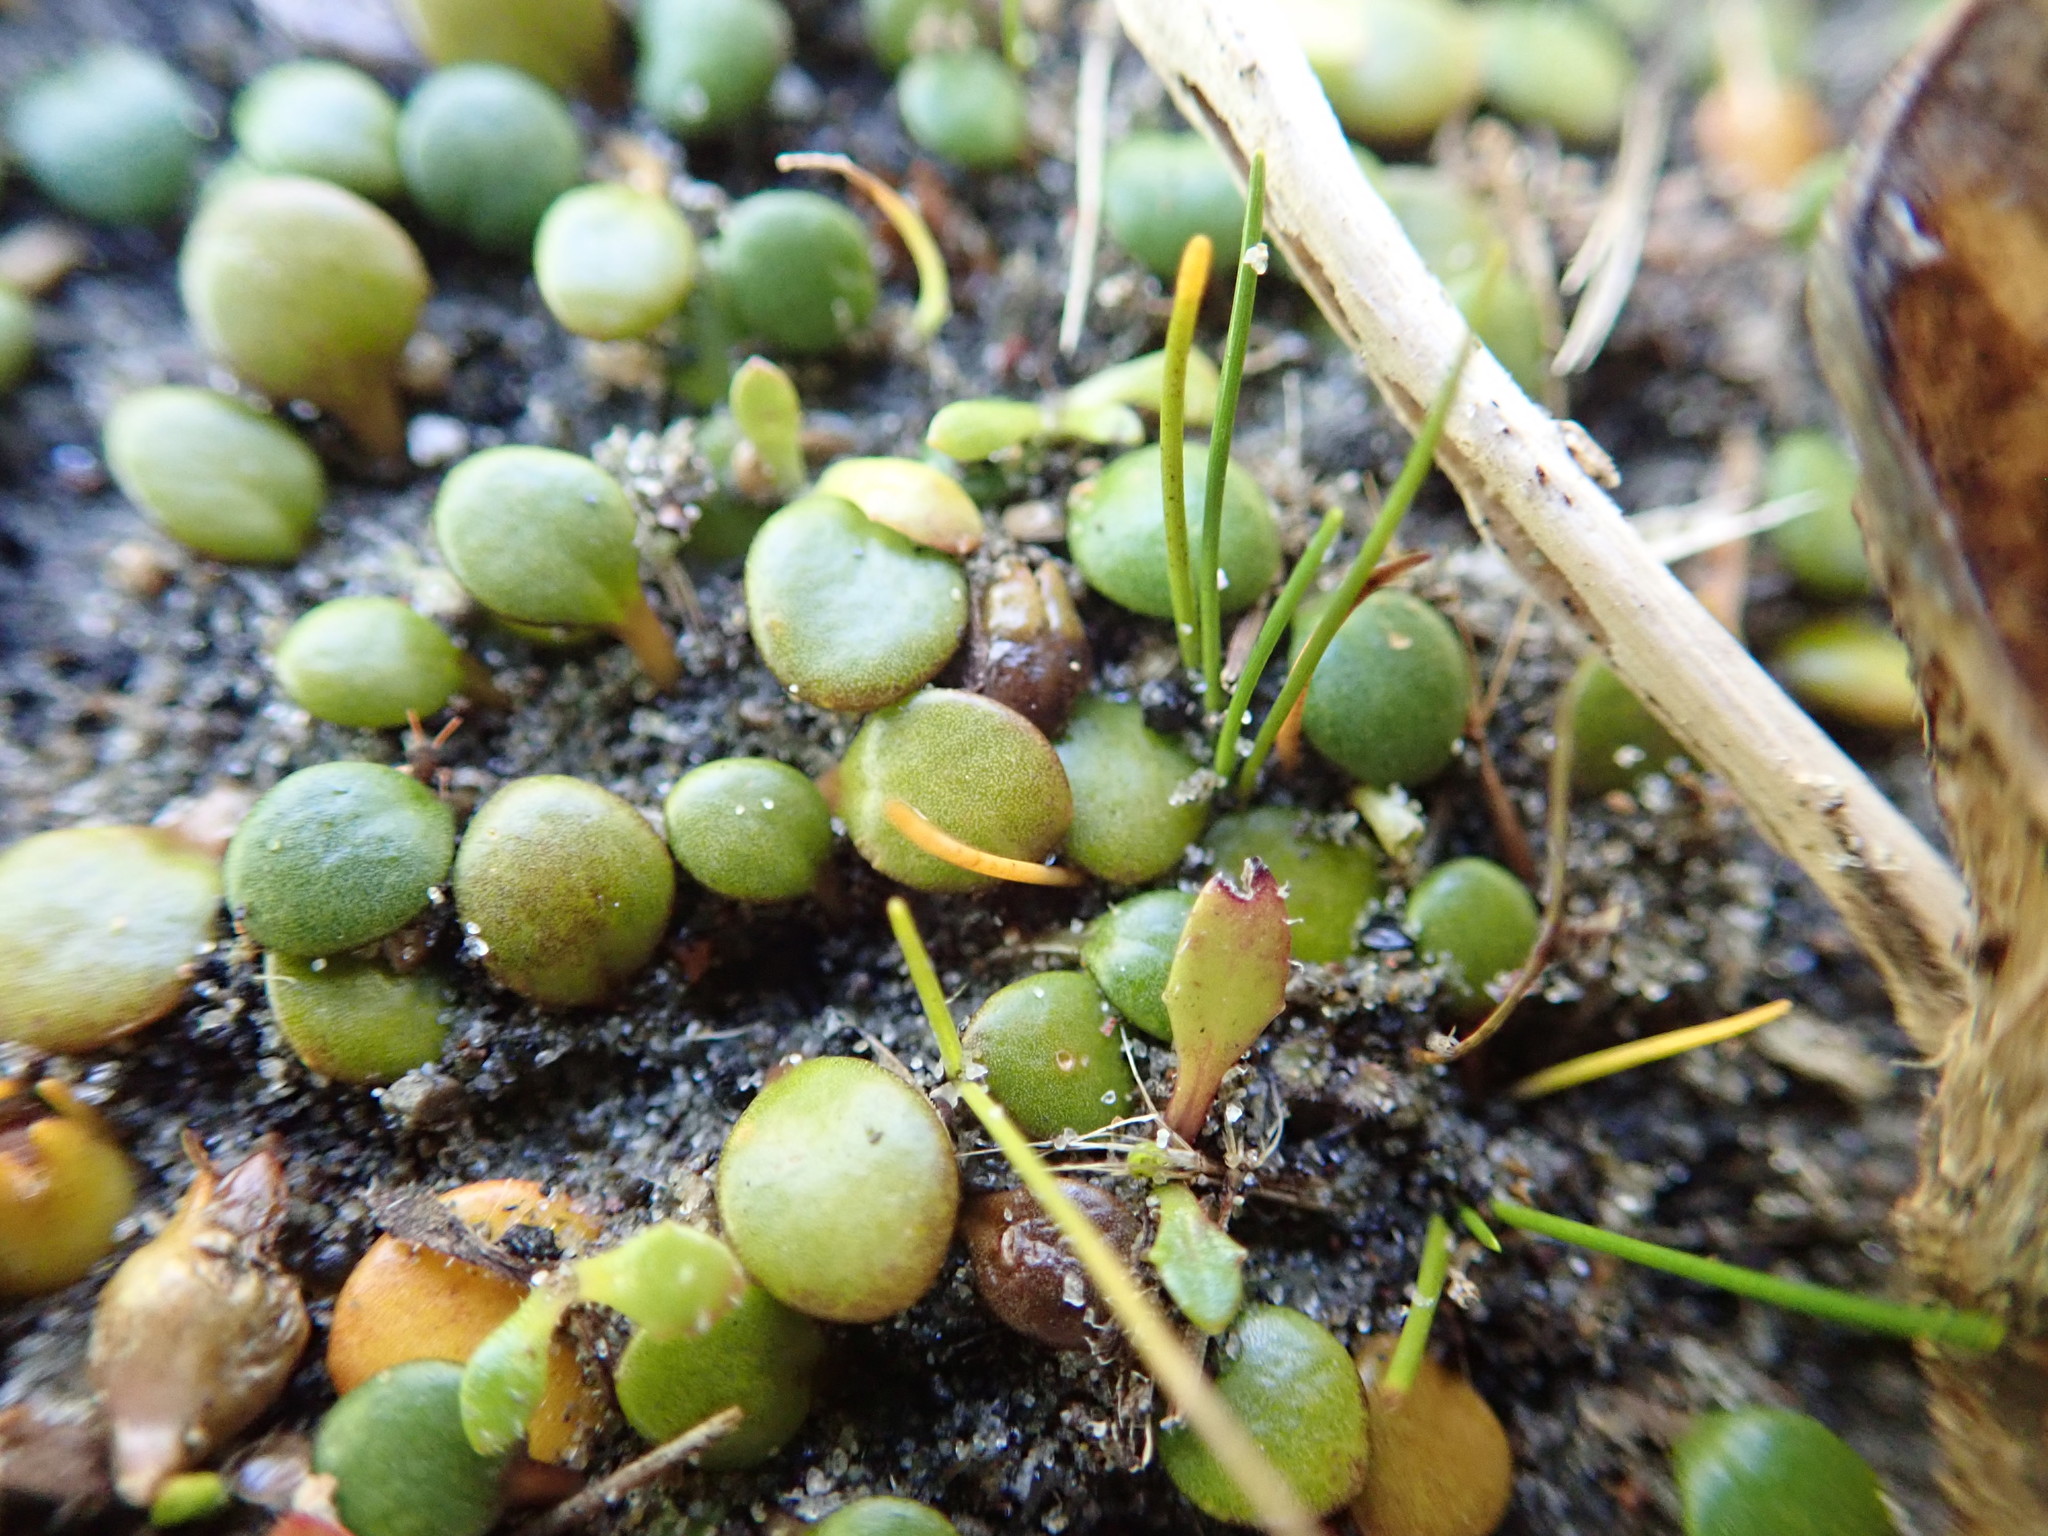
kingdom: Plantae
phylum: Tracheophyta
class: Magnoliopsida
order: Asterales
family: Goodeniaceae
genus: Goodenia
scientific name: Goodenia heenanii
